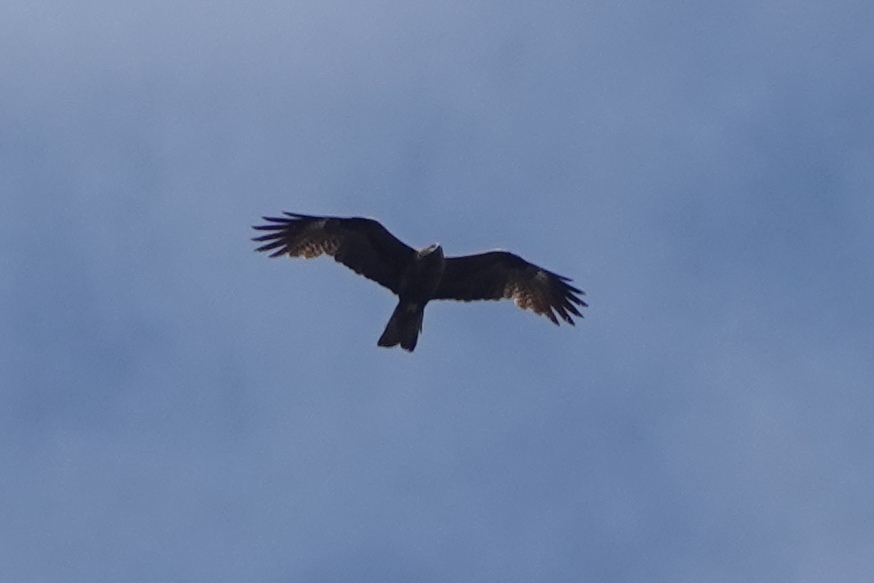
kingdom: Animalia
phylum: Chordata
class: Aves
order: Accipitriformes
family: Accipitridae
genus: Milvus
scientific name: Milvus migrans
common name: Black kite
